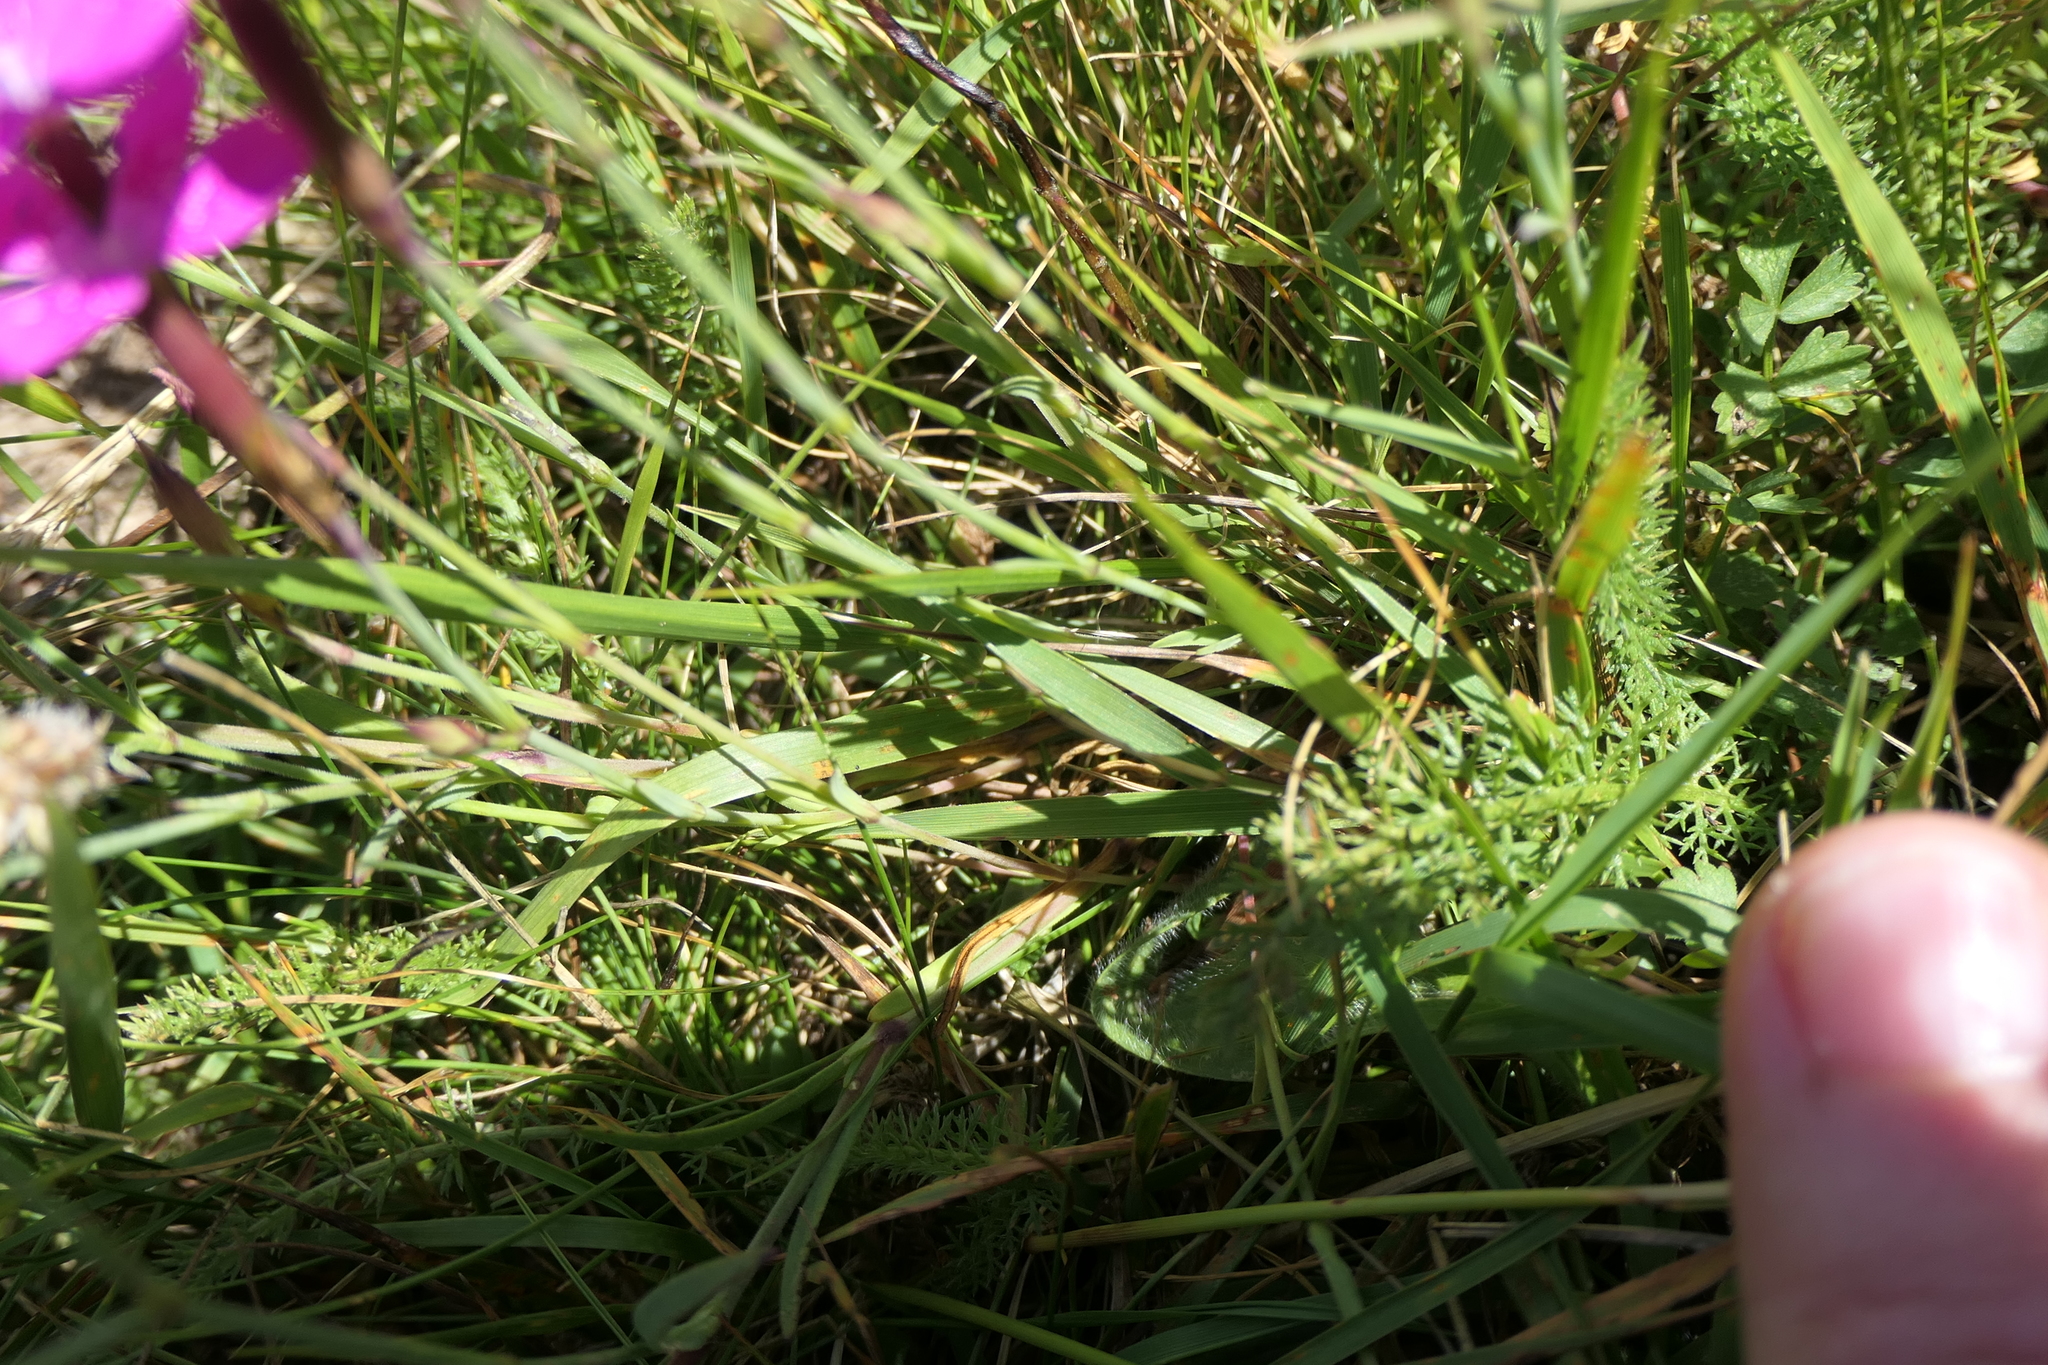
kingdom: Plantae
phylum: Tracheophyta
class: Magnoliopsida
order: Caryophyllales
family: Caryophyllaceae
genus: Dianthus
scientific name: Dianthus deltoides
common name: Maiden pink
